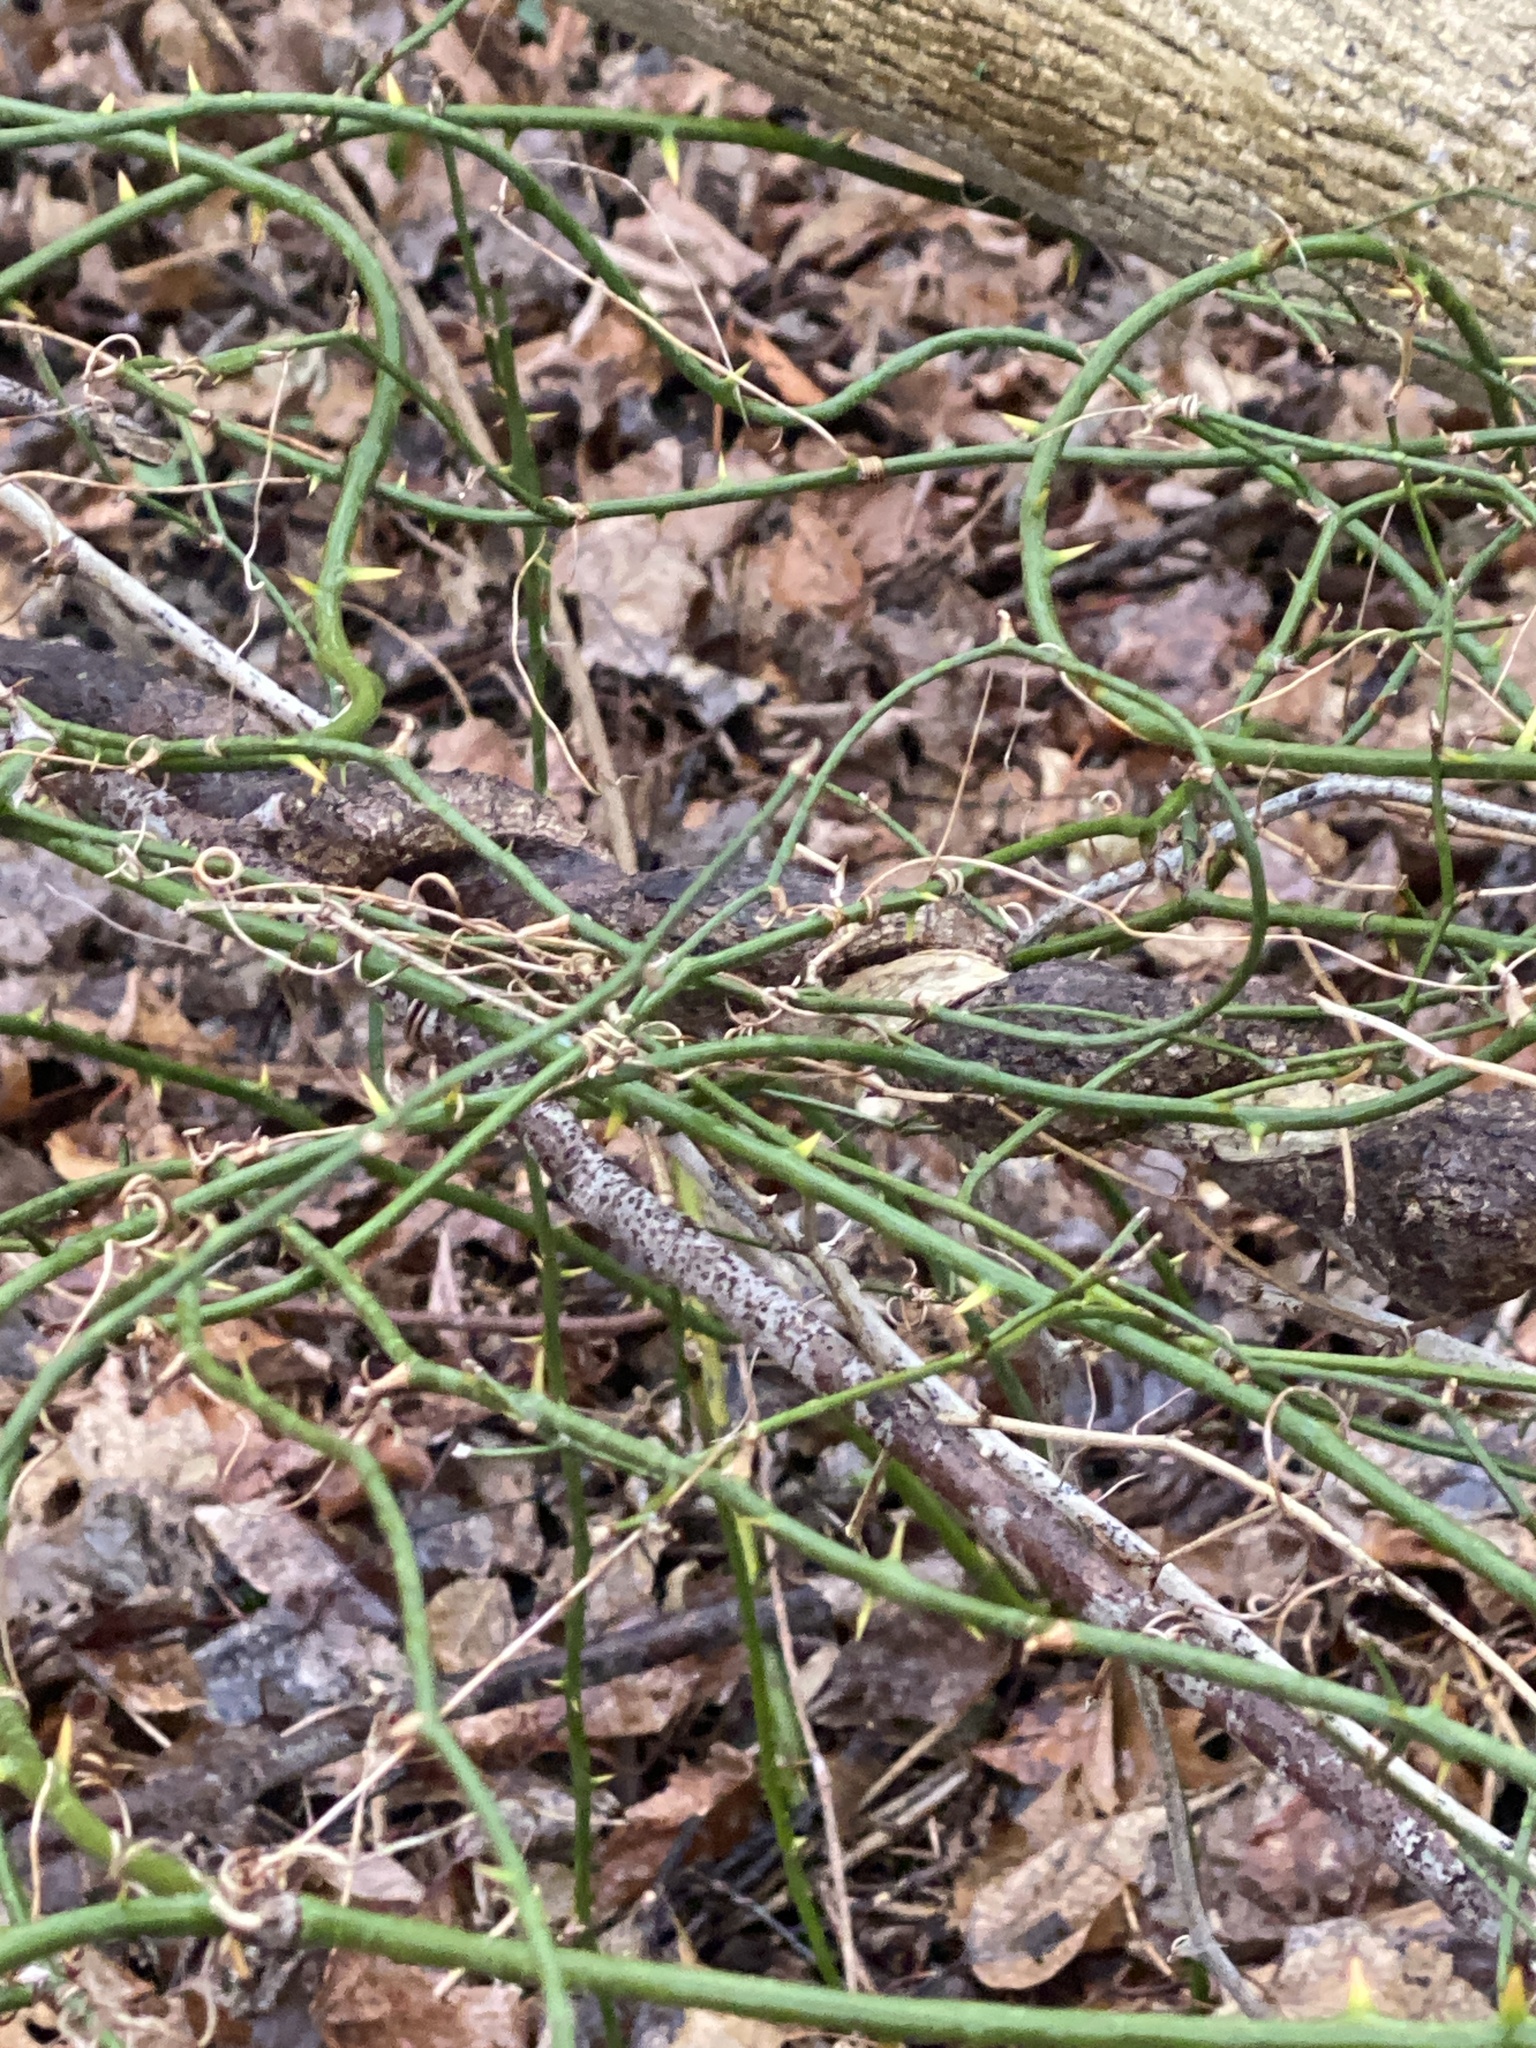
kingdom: Plantae
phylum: Tracheophyta
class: Liliopsida
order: Liliales
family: Smilacaceae
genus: Smilax
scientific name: Smilax rotundifolia
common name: Bullbriar
